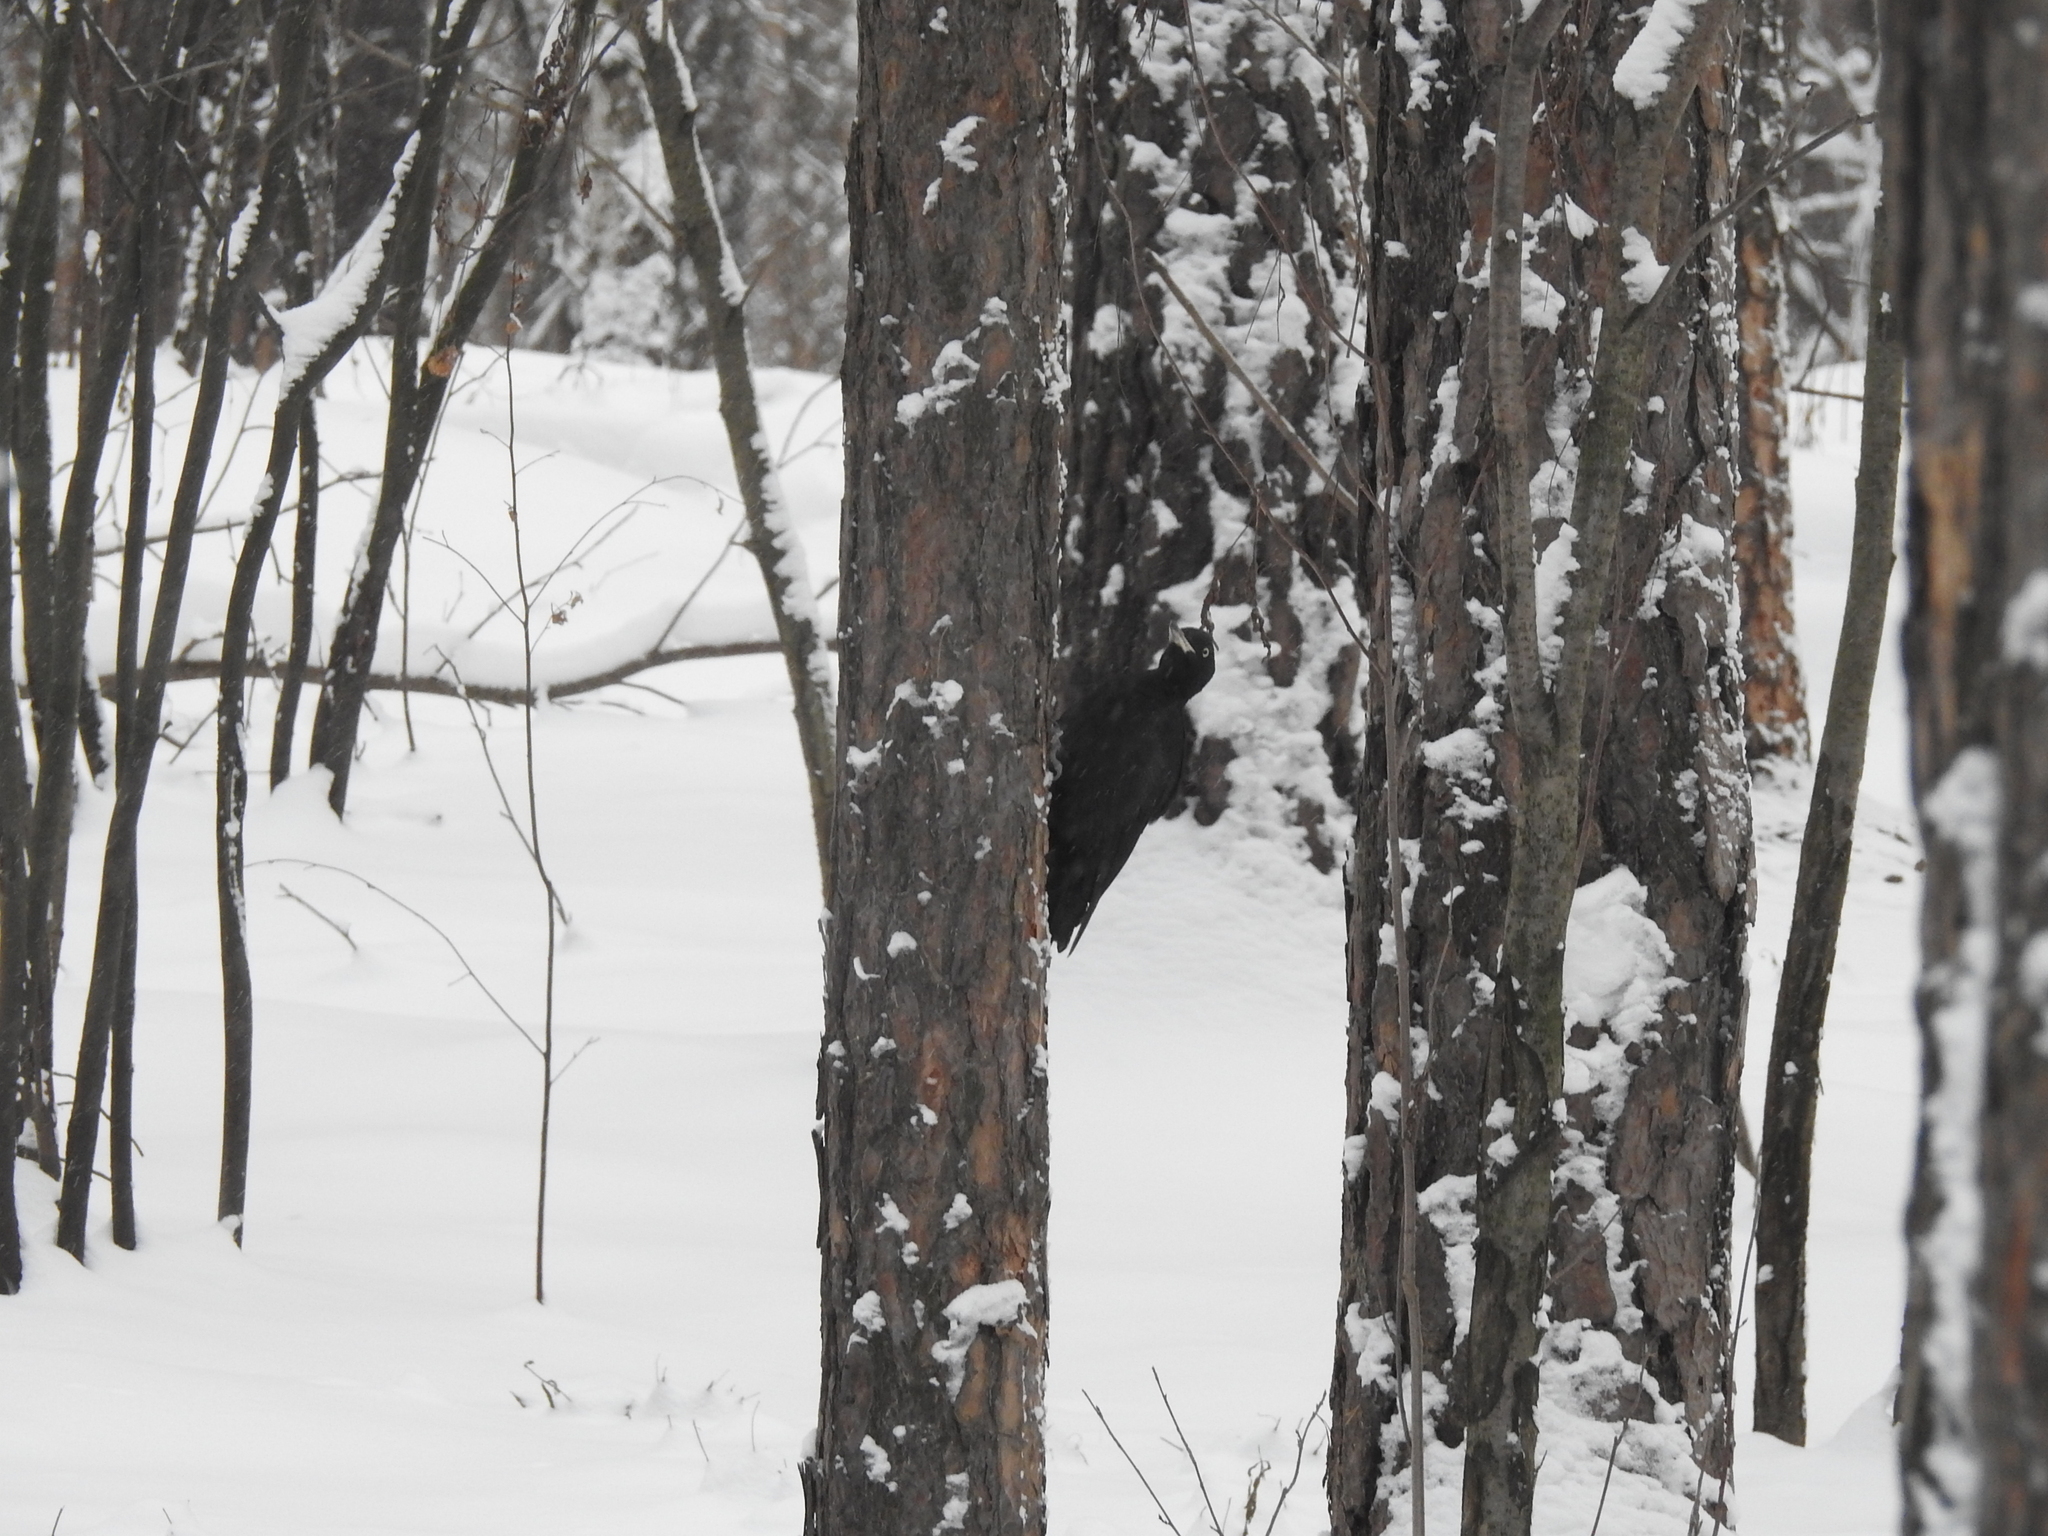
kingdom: Animalia
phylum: Chordata
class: Aves
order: Piciformes
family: Picidae
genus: Dryocopus
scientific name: Dryocopus martius
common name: Black woodpecker
